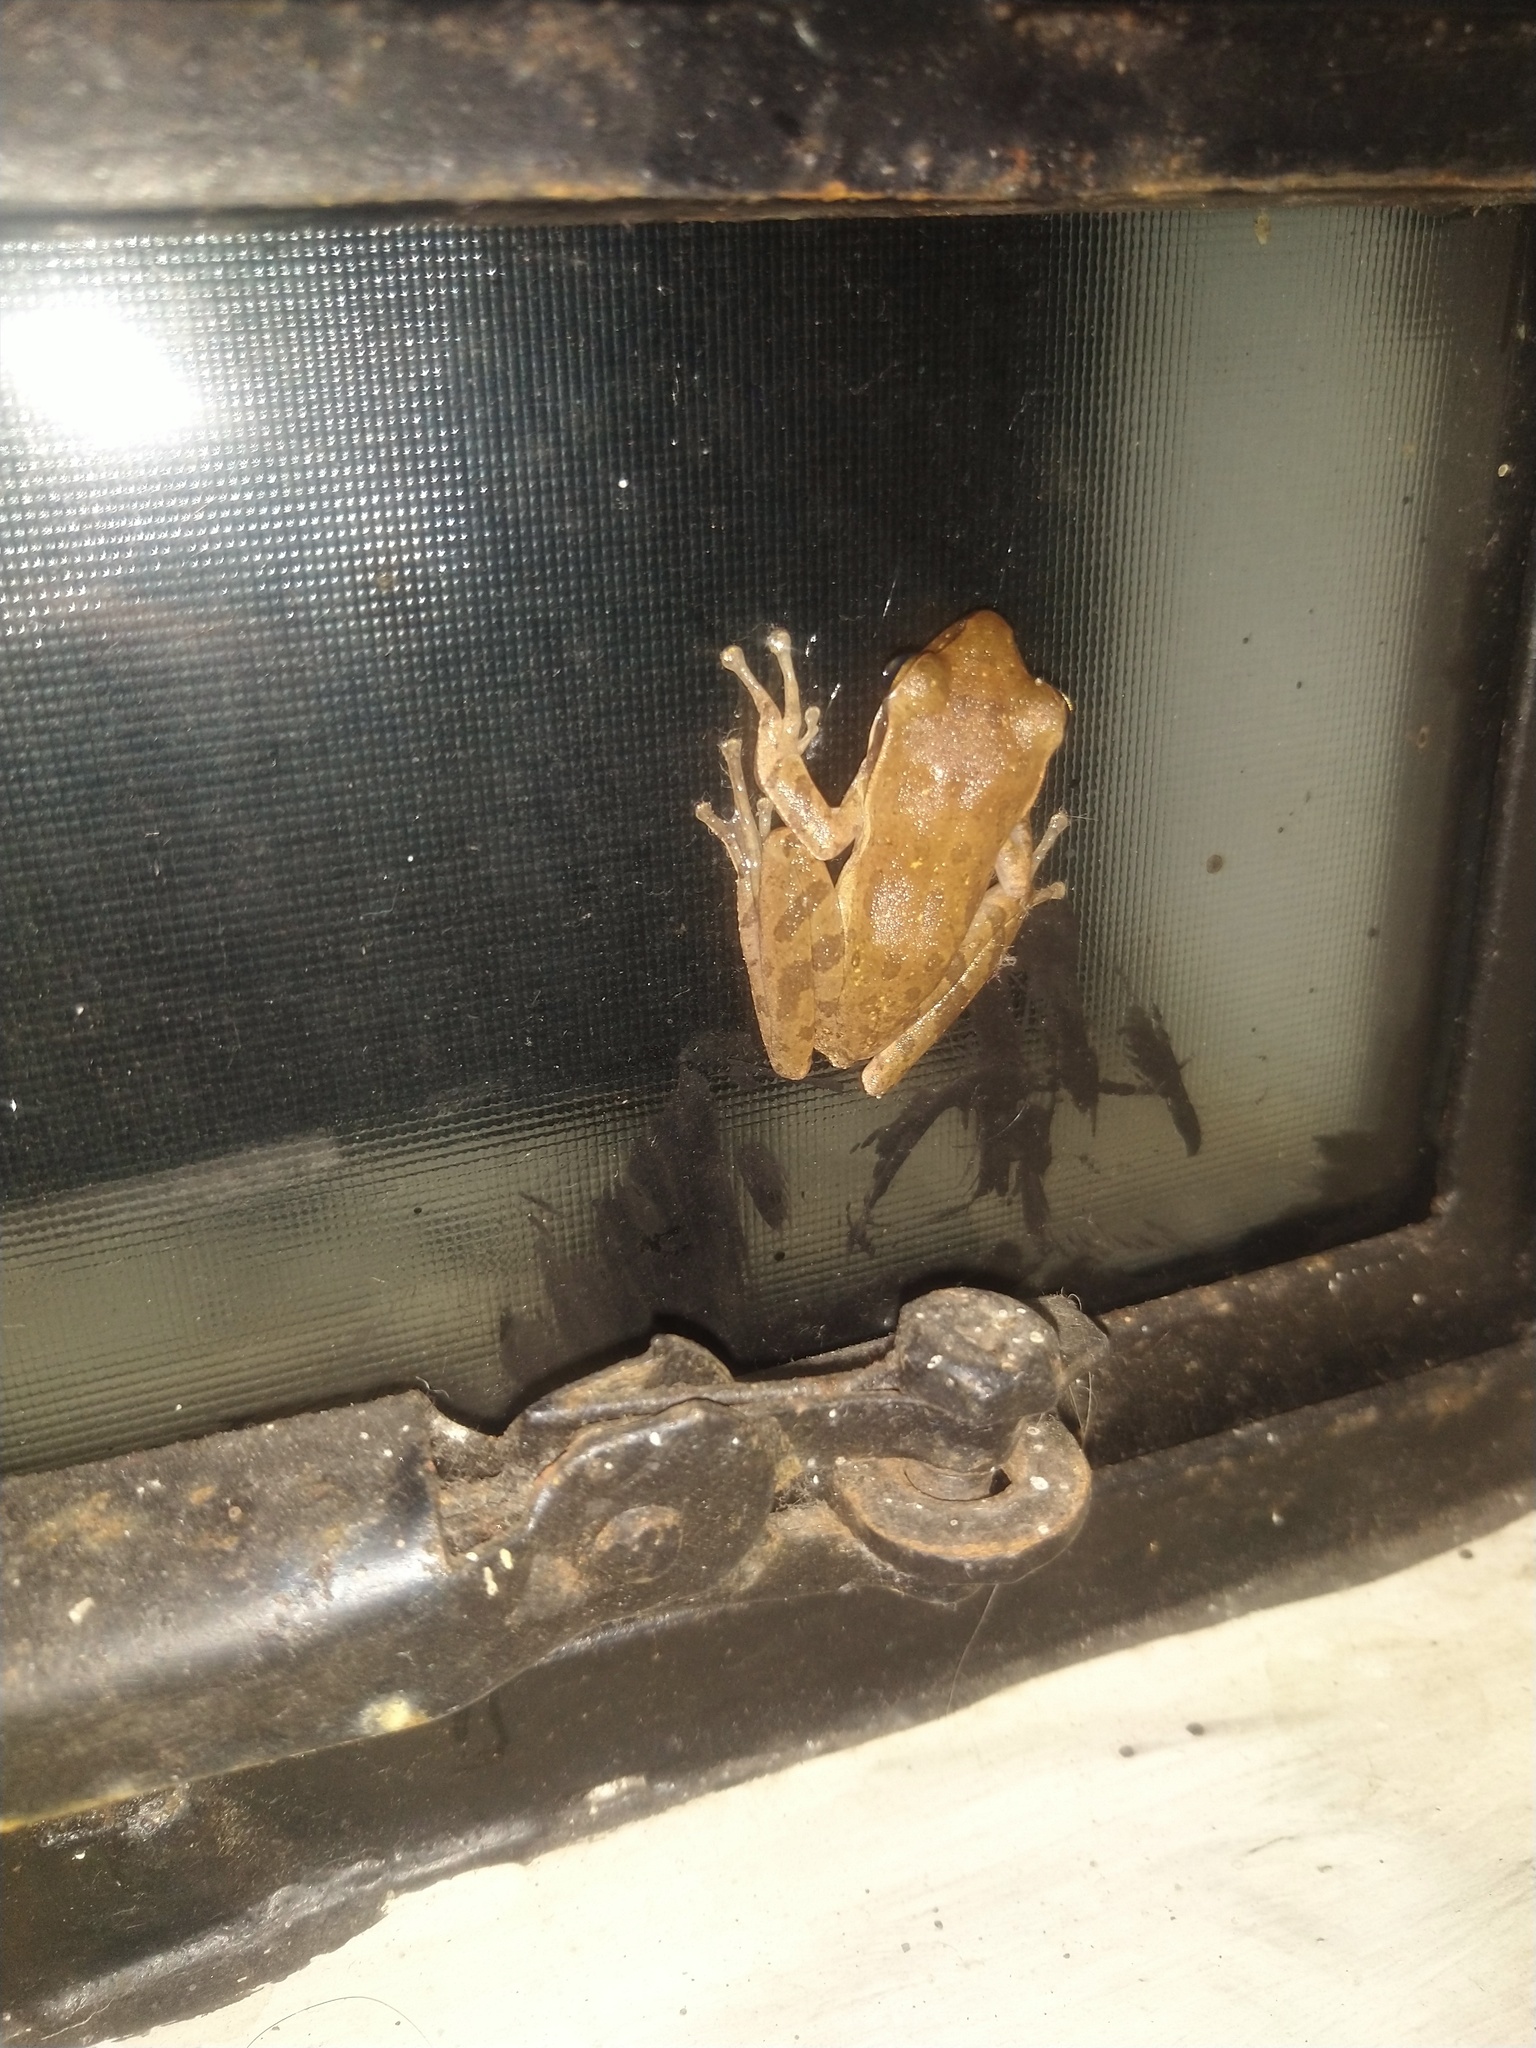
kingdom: Animalia
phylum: Chordata
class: Amphibia
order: Anura
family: Rhacophoridae
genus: Polypedates
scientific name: Polypedates maculatus
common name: Himalayan tree frog
